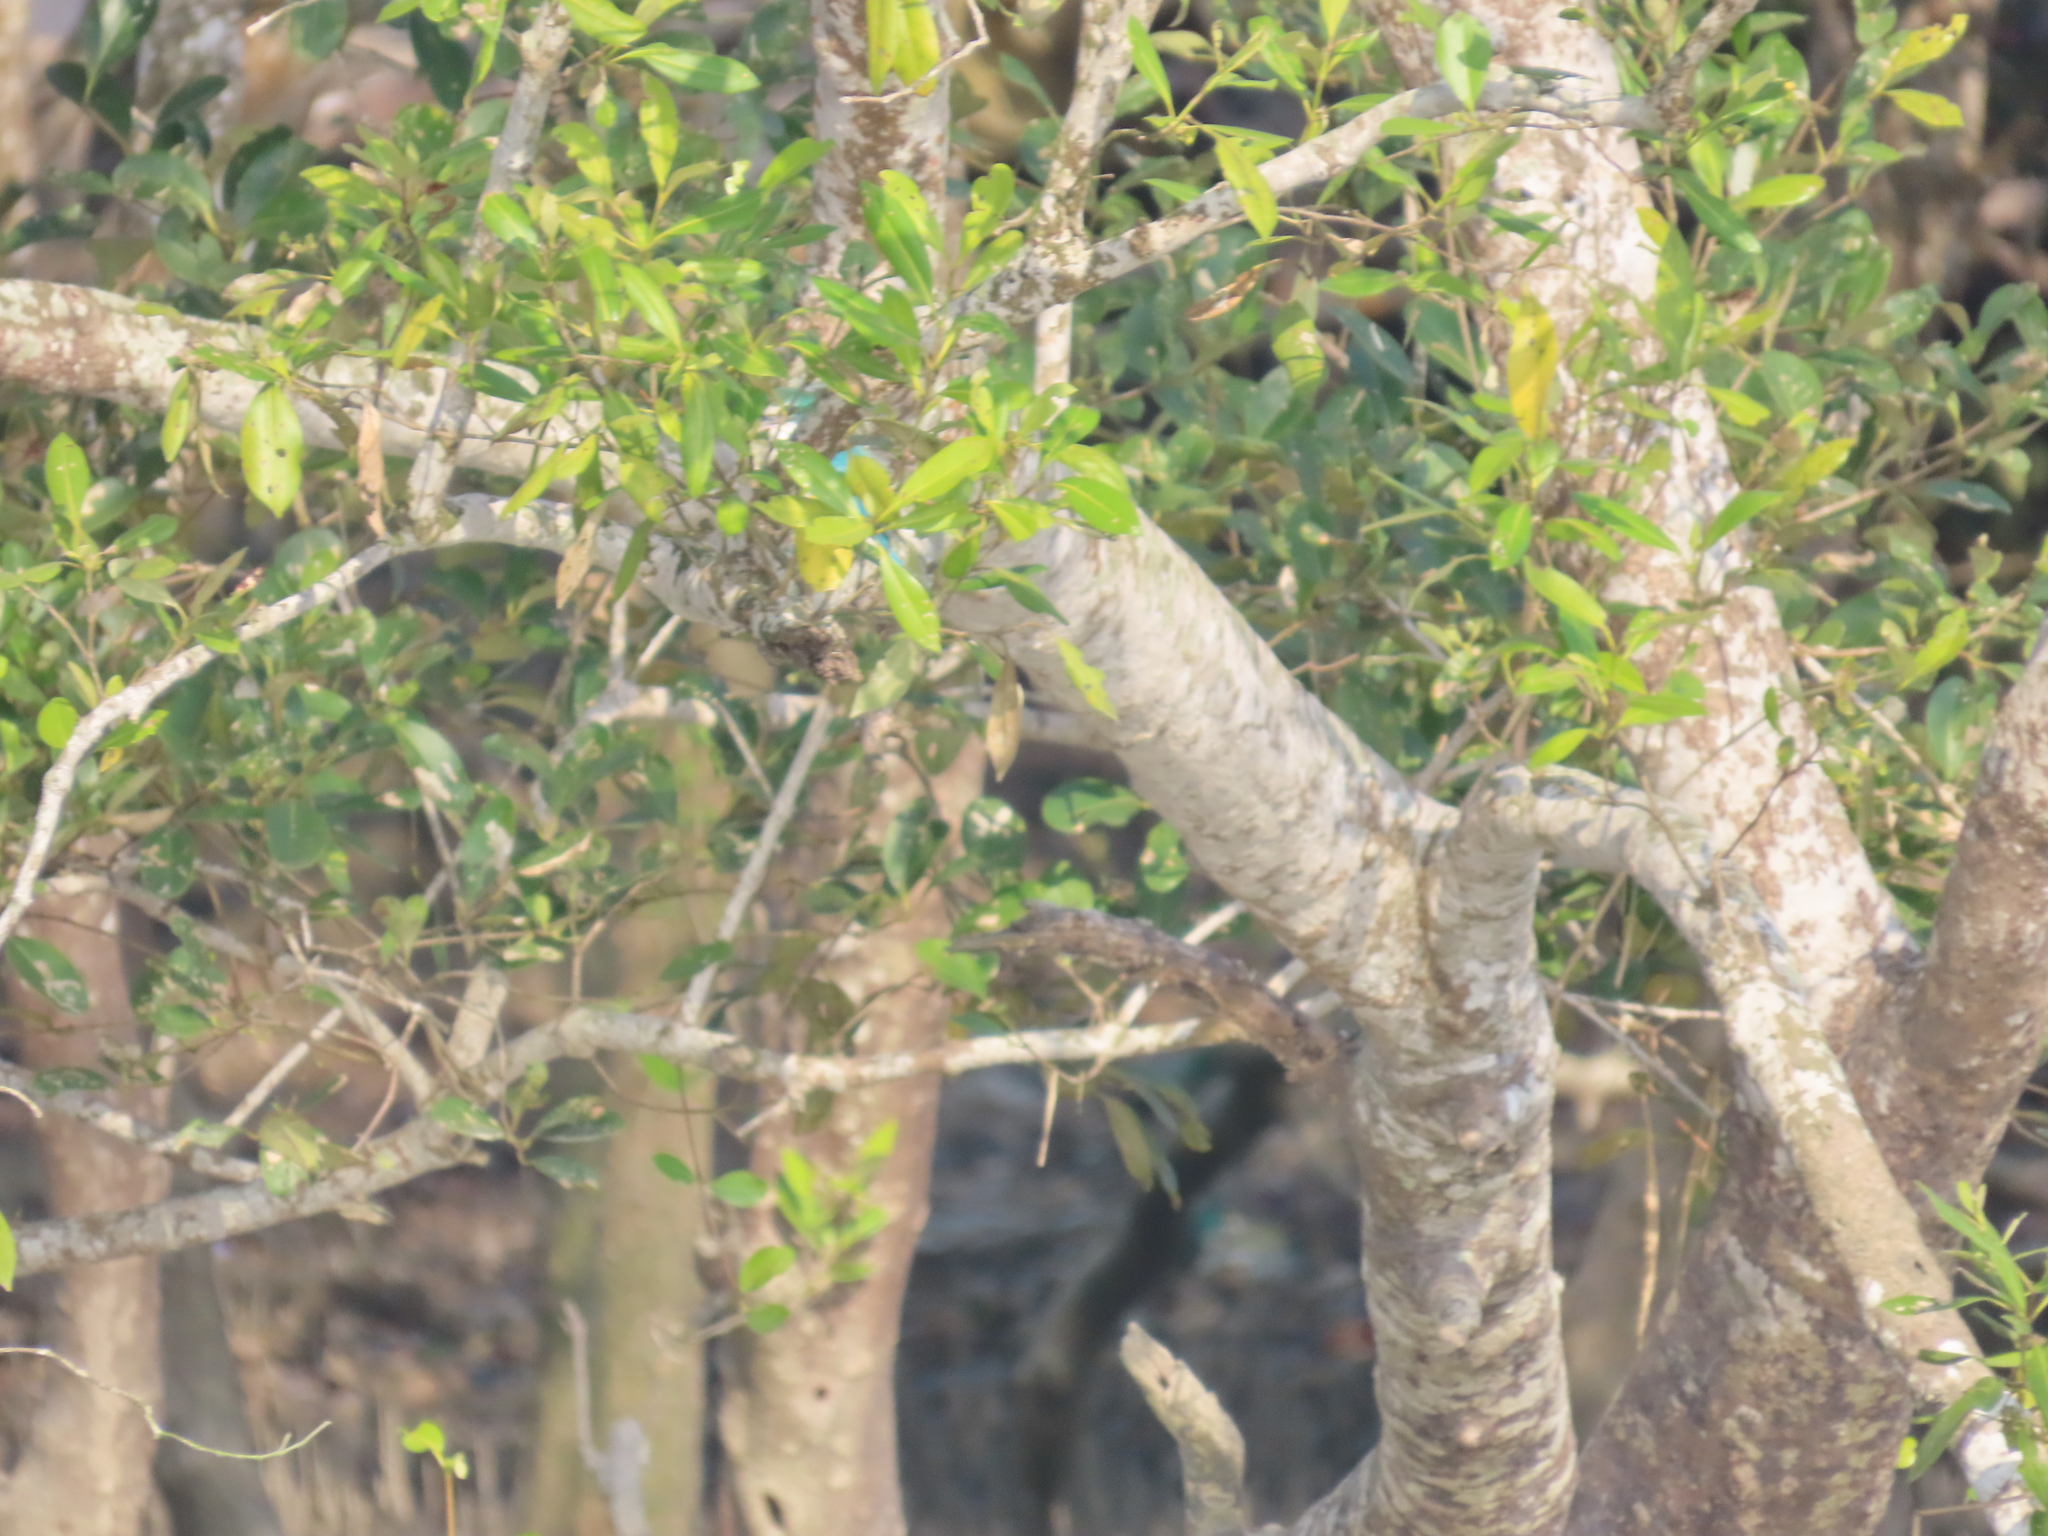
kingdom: Animalia
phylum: Chordata
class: Aves
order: Coraciiformes
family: Alcedinidae
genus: Todiramphus
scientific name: Todiramphus chloris
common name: Collared kingfisher
